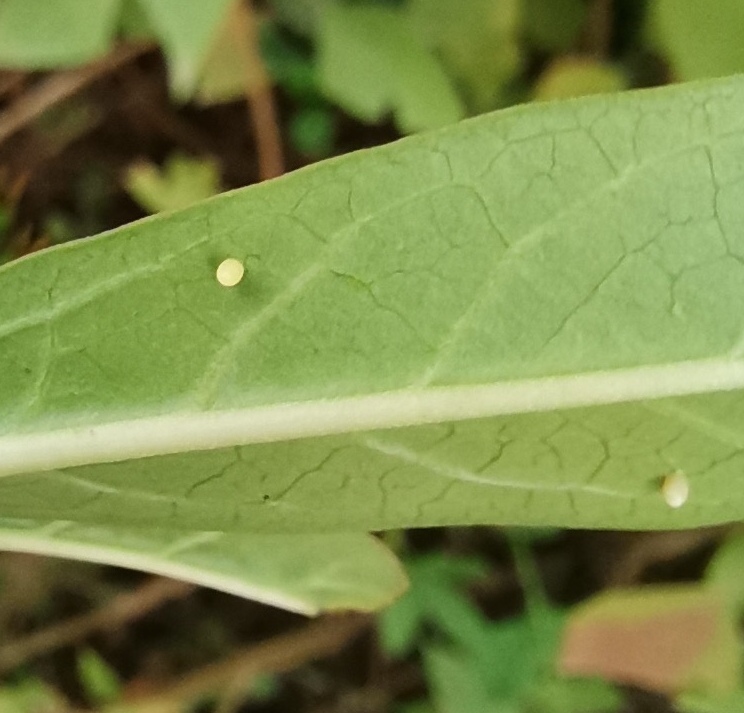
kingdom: Animalia
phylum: Arthropoda
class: Insecta
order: Lepidoptera
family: Nymphalidae
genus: Danaus
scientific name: Danaus plexippus
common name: Monarch
